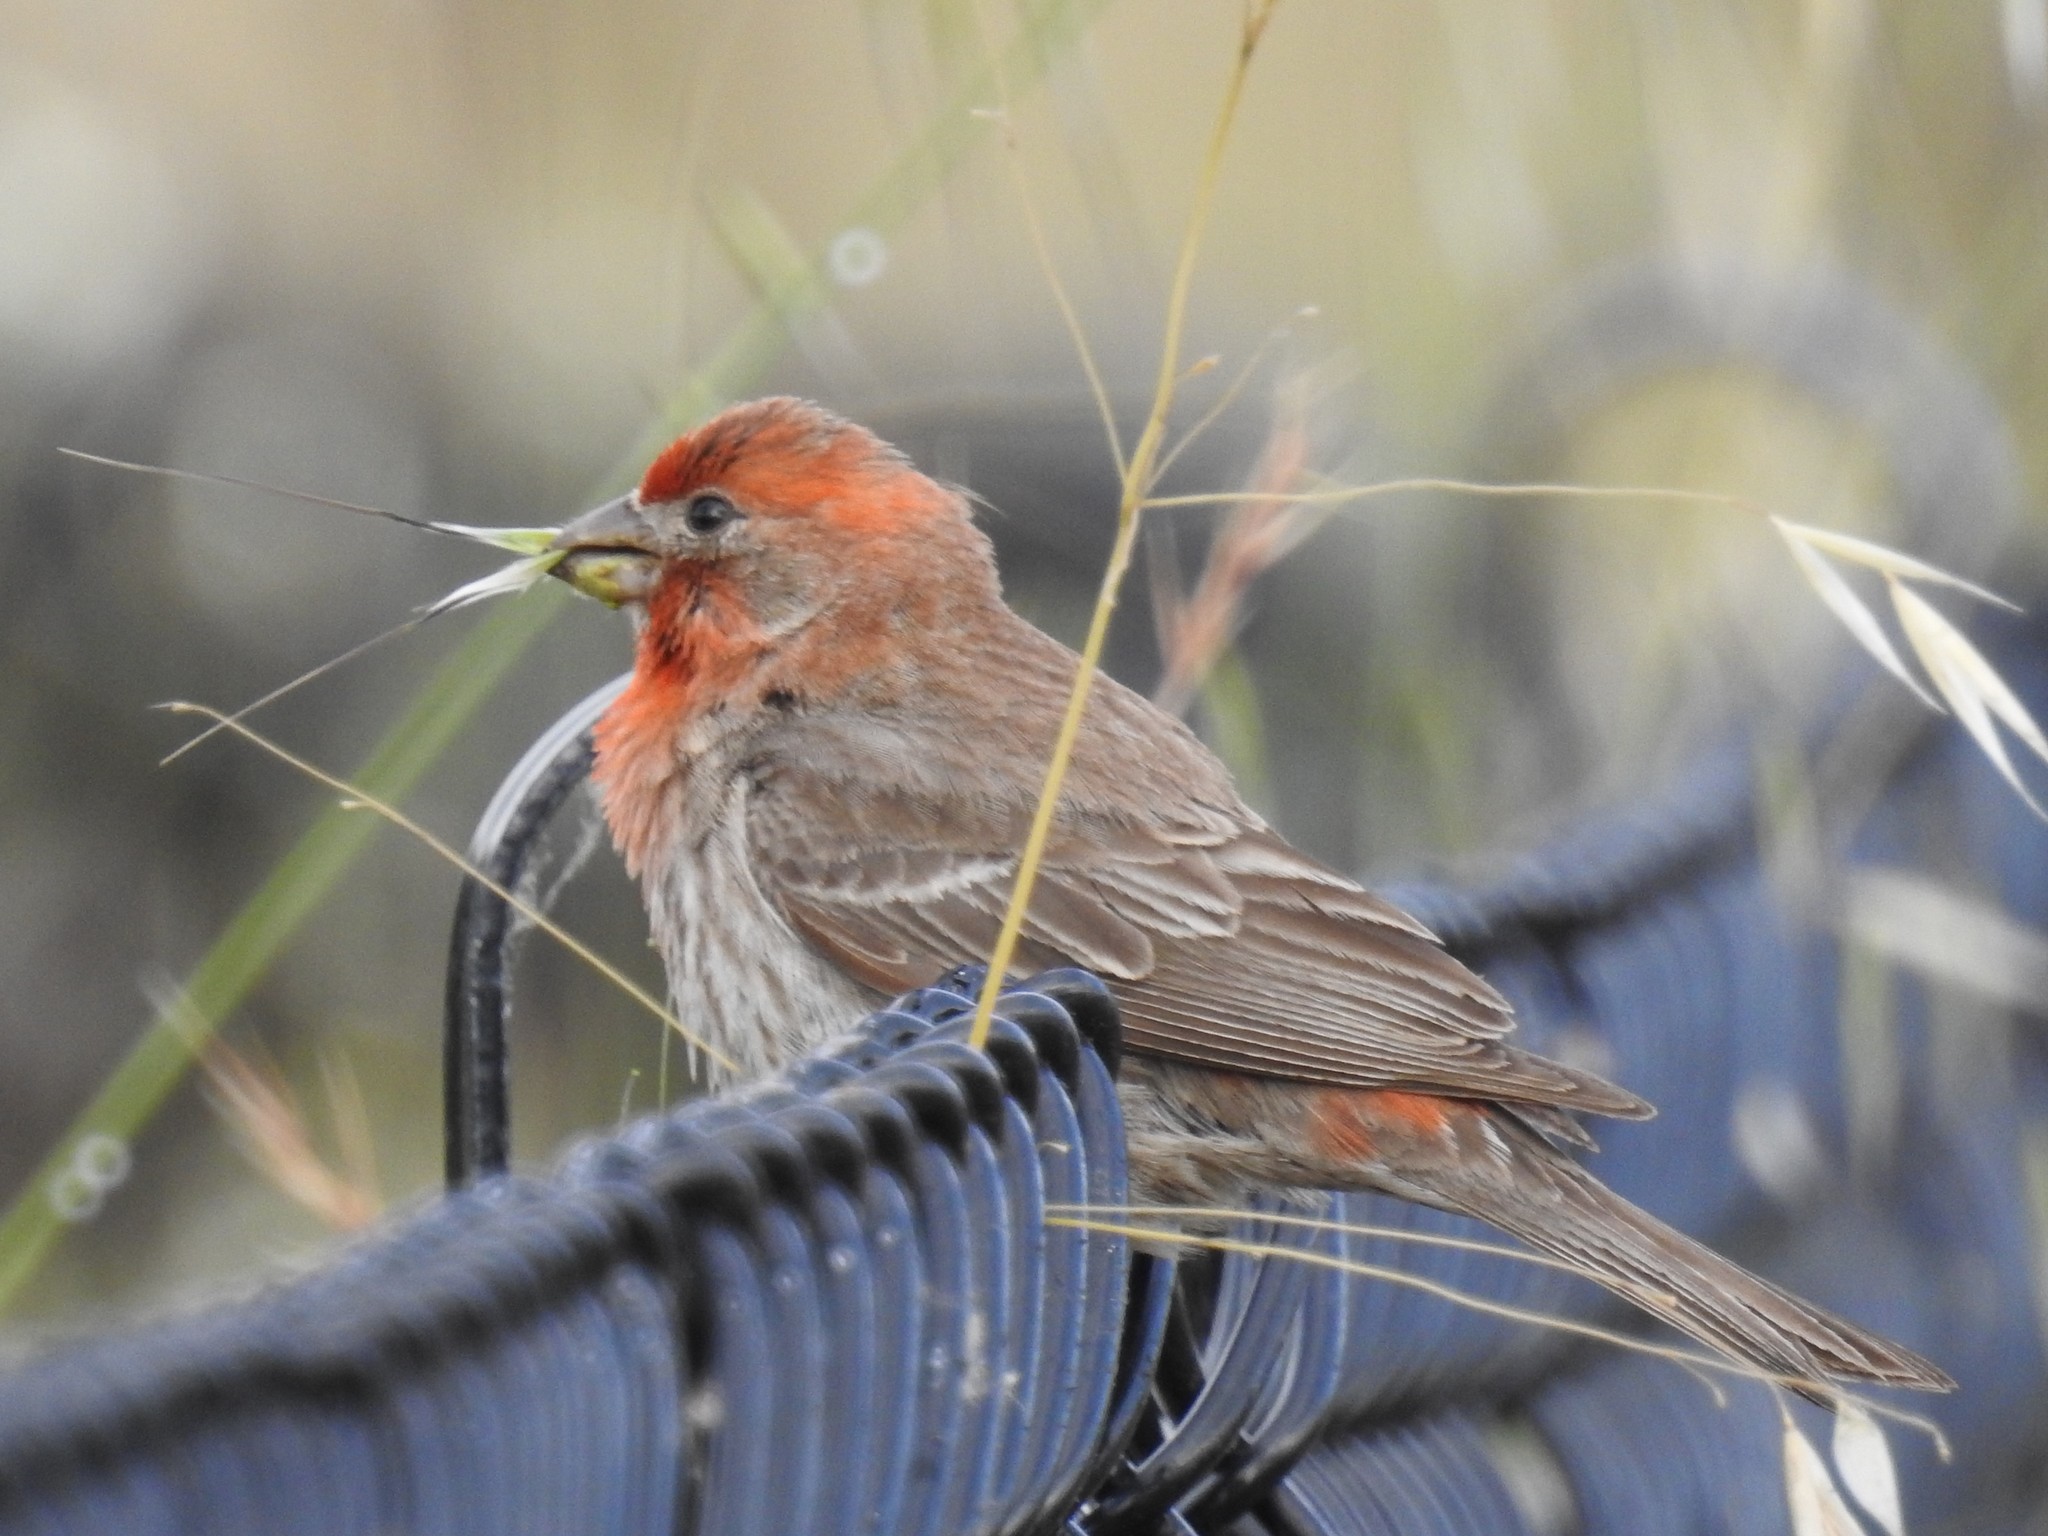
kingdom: Animalia
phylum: Chordata
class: Aves
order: Passeriformes
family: Fringillidae
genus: Haemorhous
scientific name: Haemorhous mexicanus
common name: House finch
